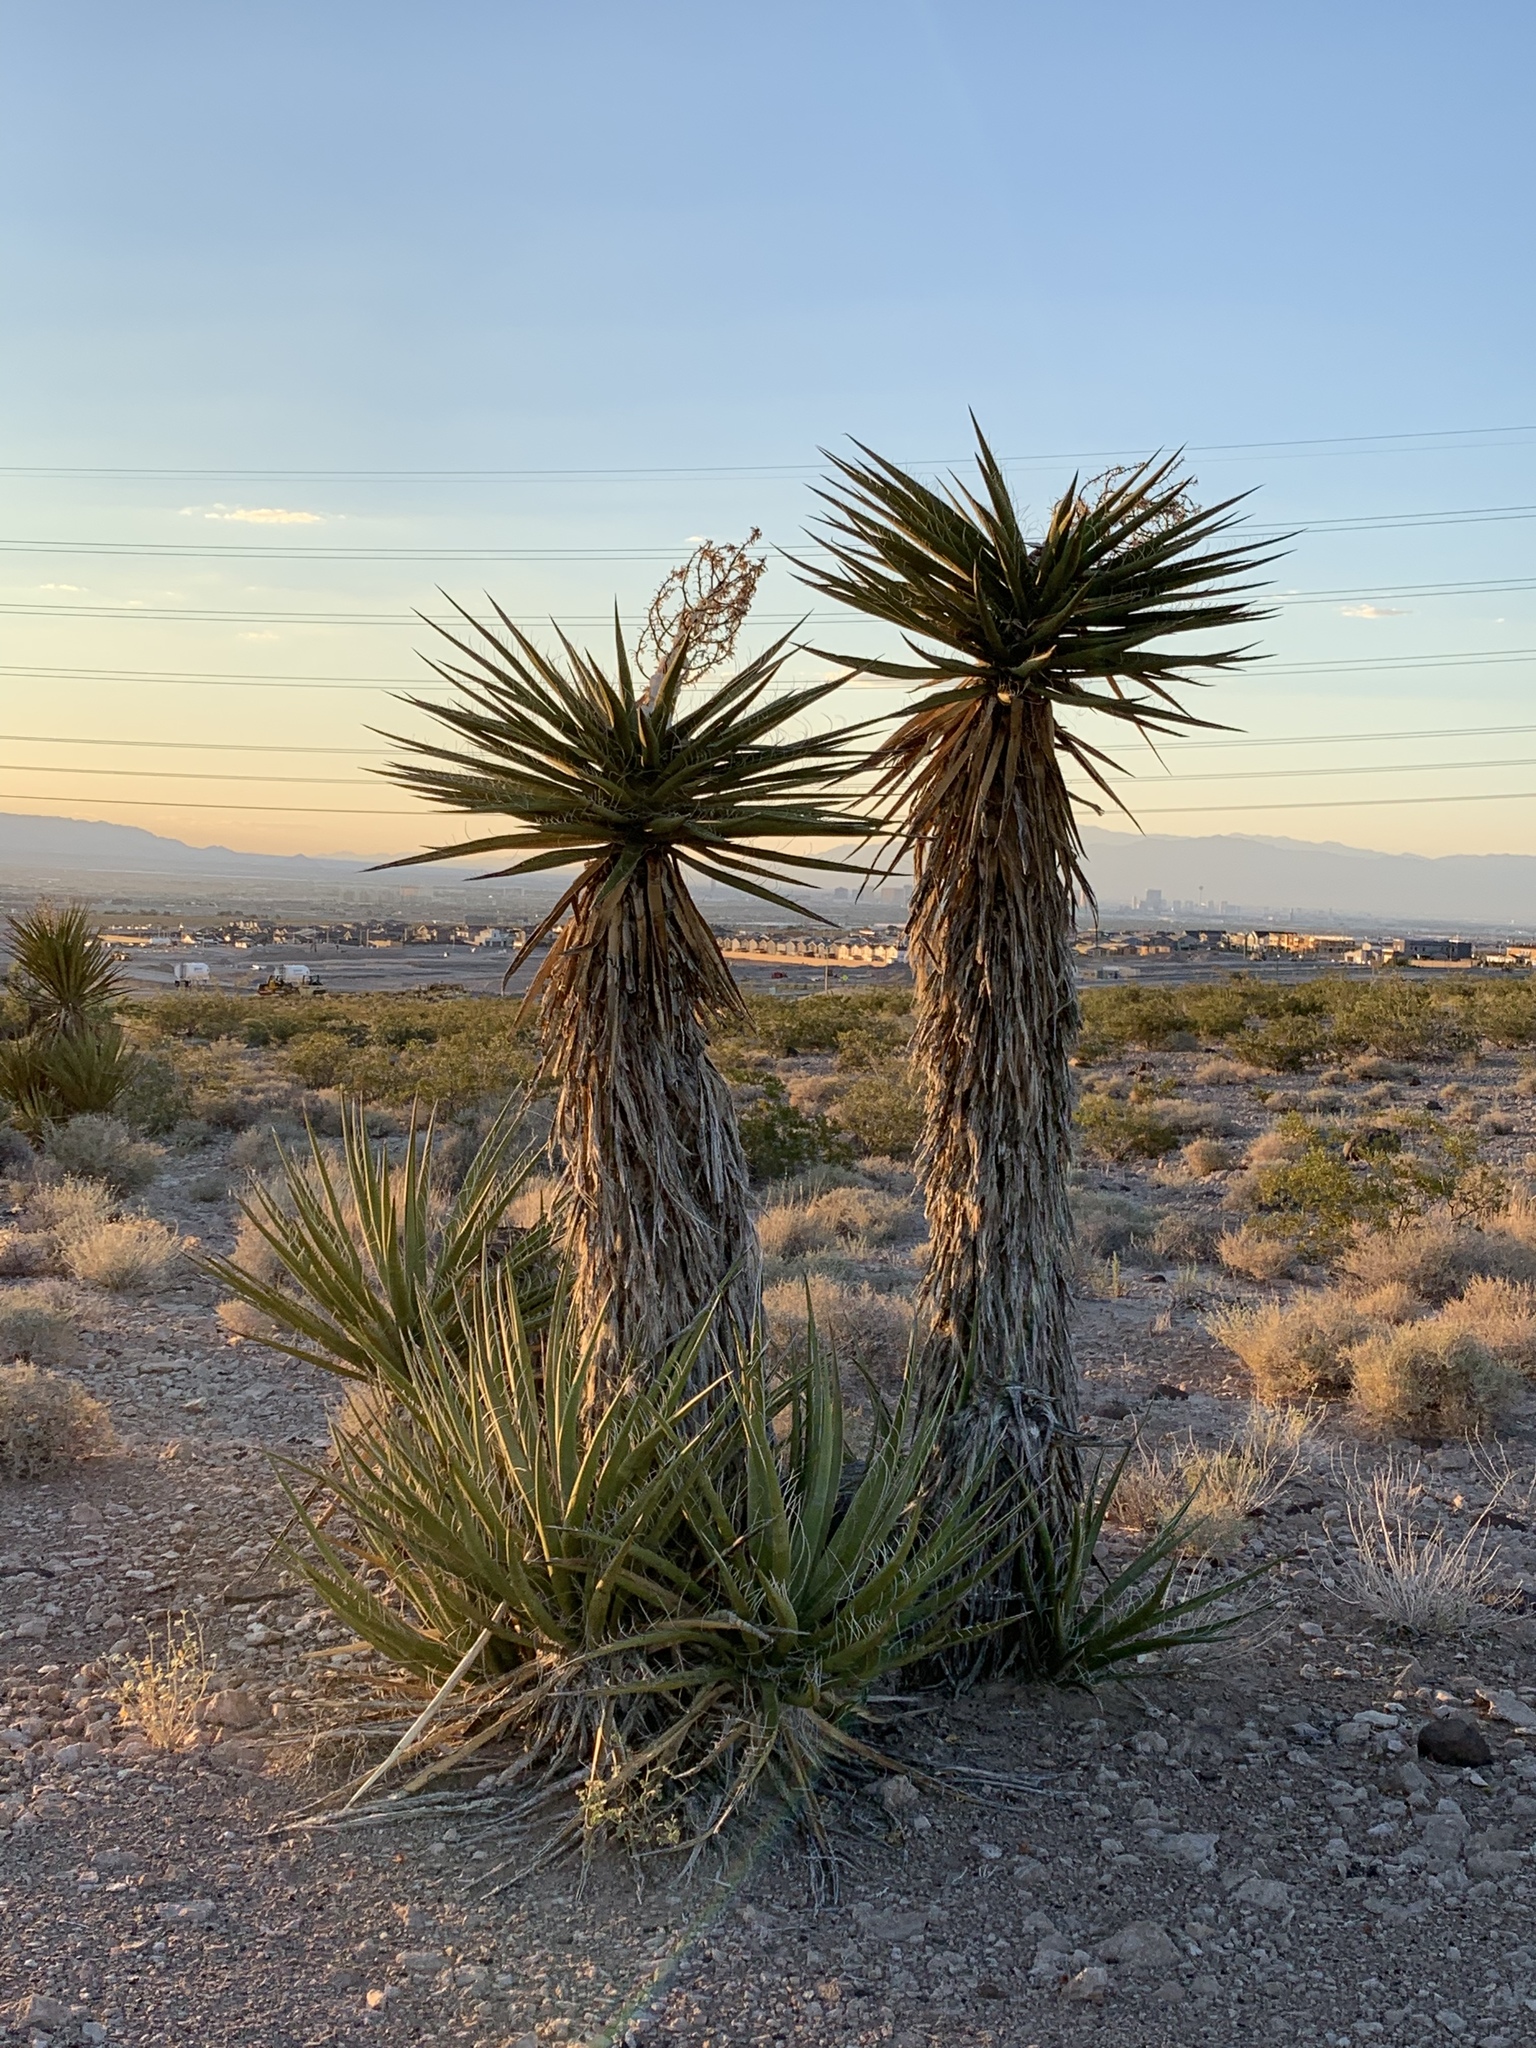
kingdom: Plantae
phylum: Tracheophyta
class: Liliopsida
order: Asparagales
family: Asparagaceae
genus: Yucca
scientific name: Yucca schidigera
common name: Mojave yucca
